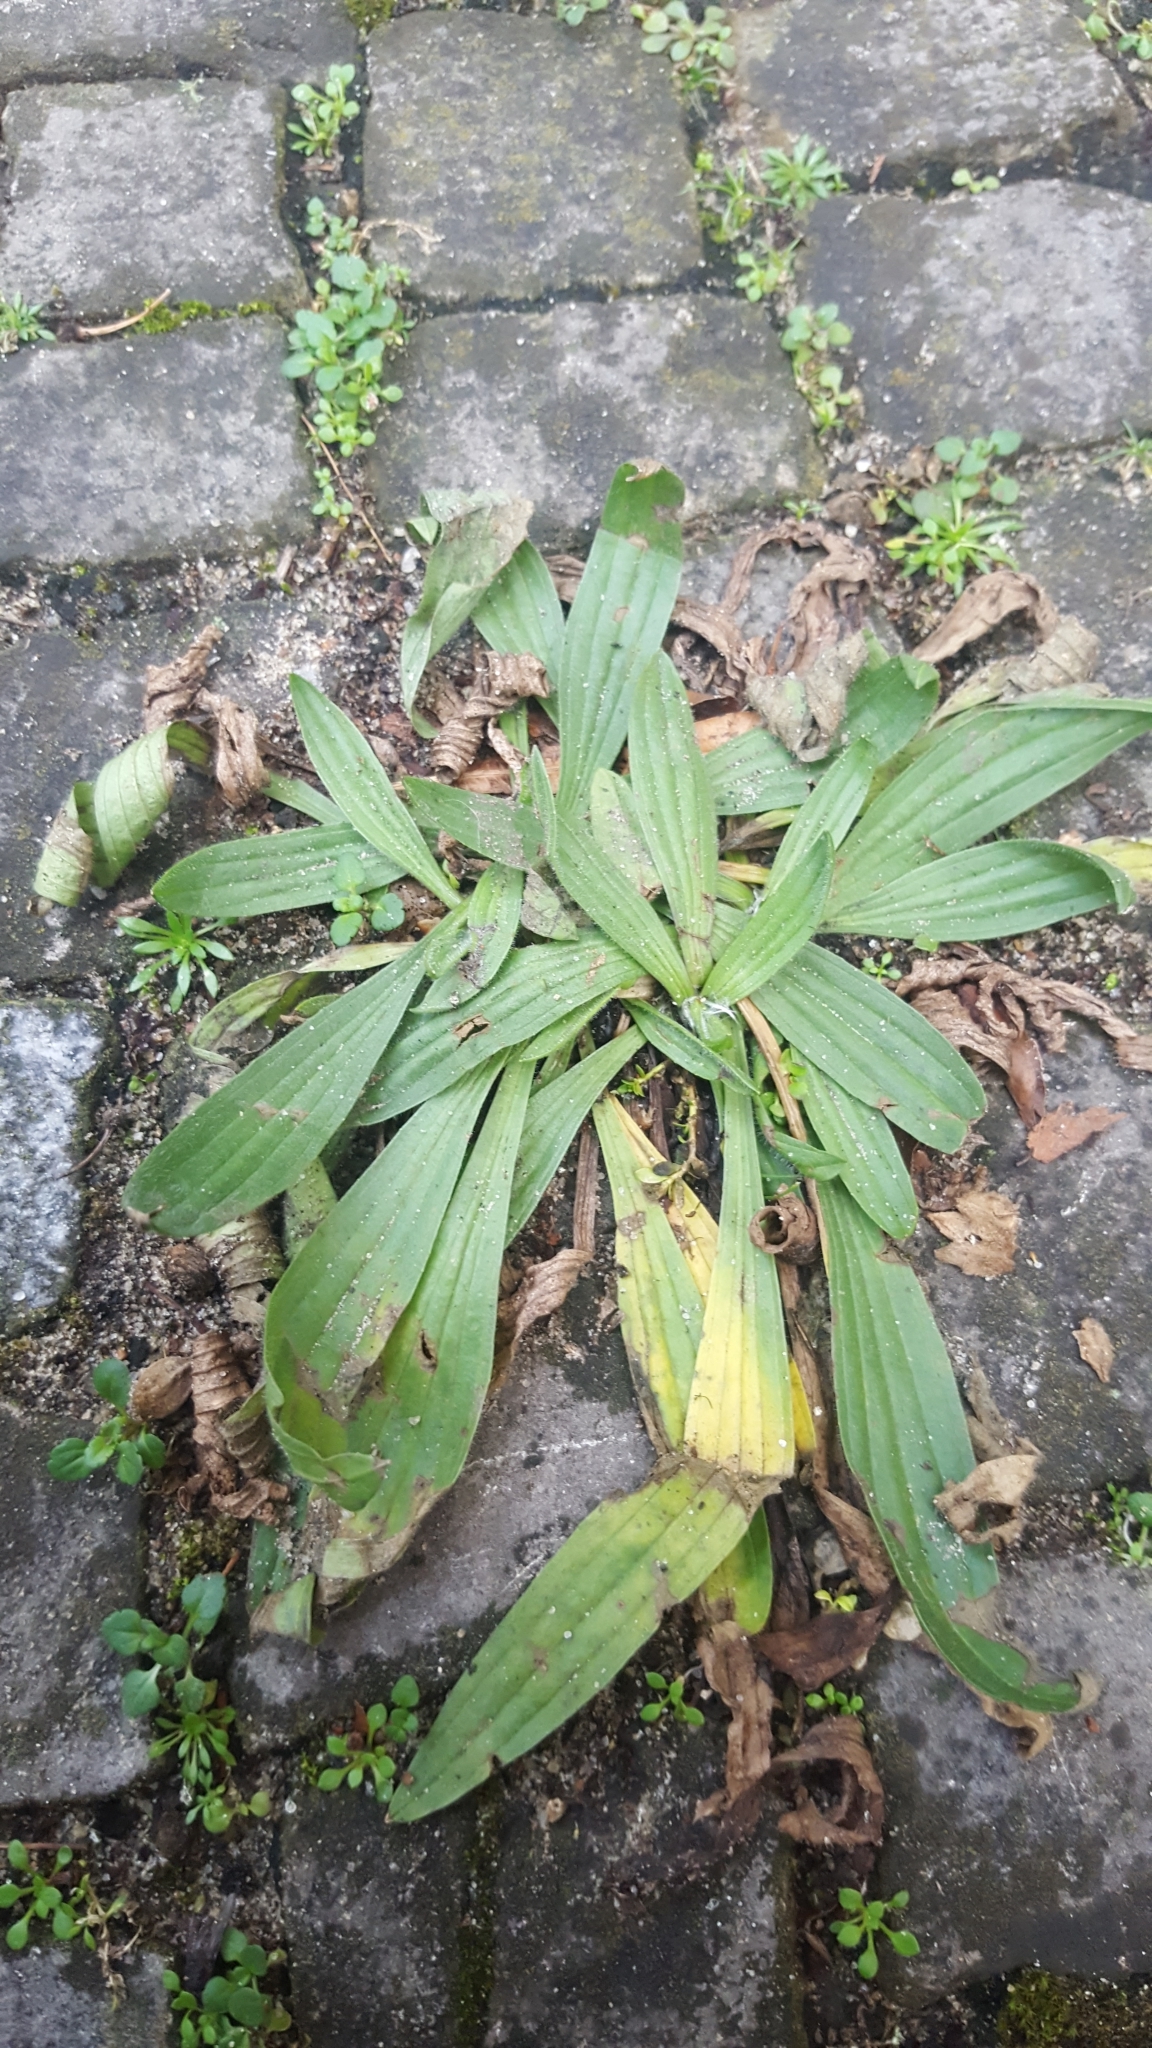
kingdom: Plantae
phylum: Tracheophyta
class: Magnoliopsida
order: Lamiales
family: Plantaginaceae
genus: Plantago
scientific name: Plantago lanceolata
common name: Ribwort plantain
